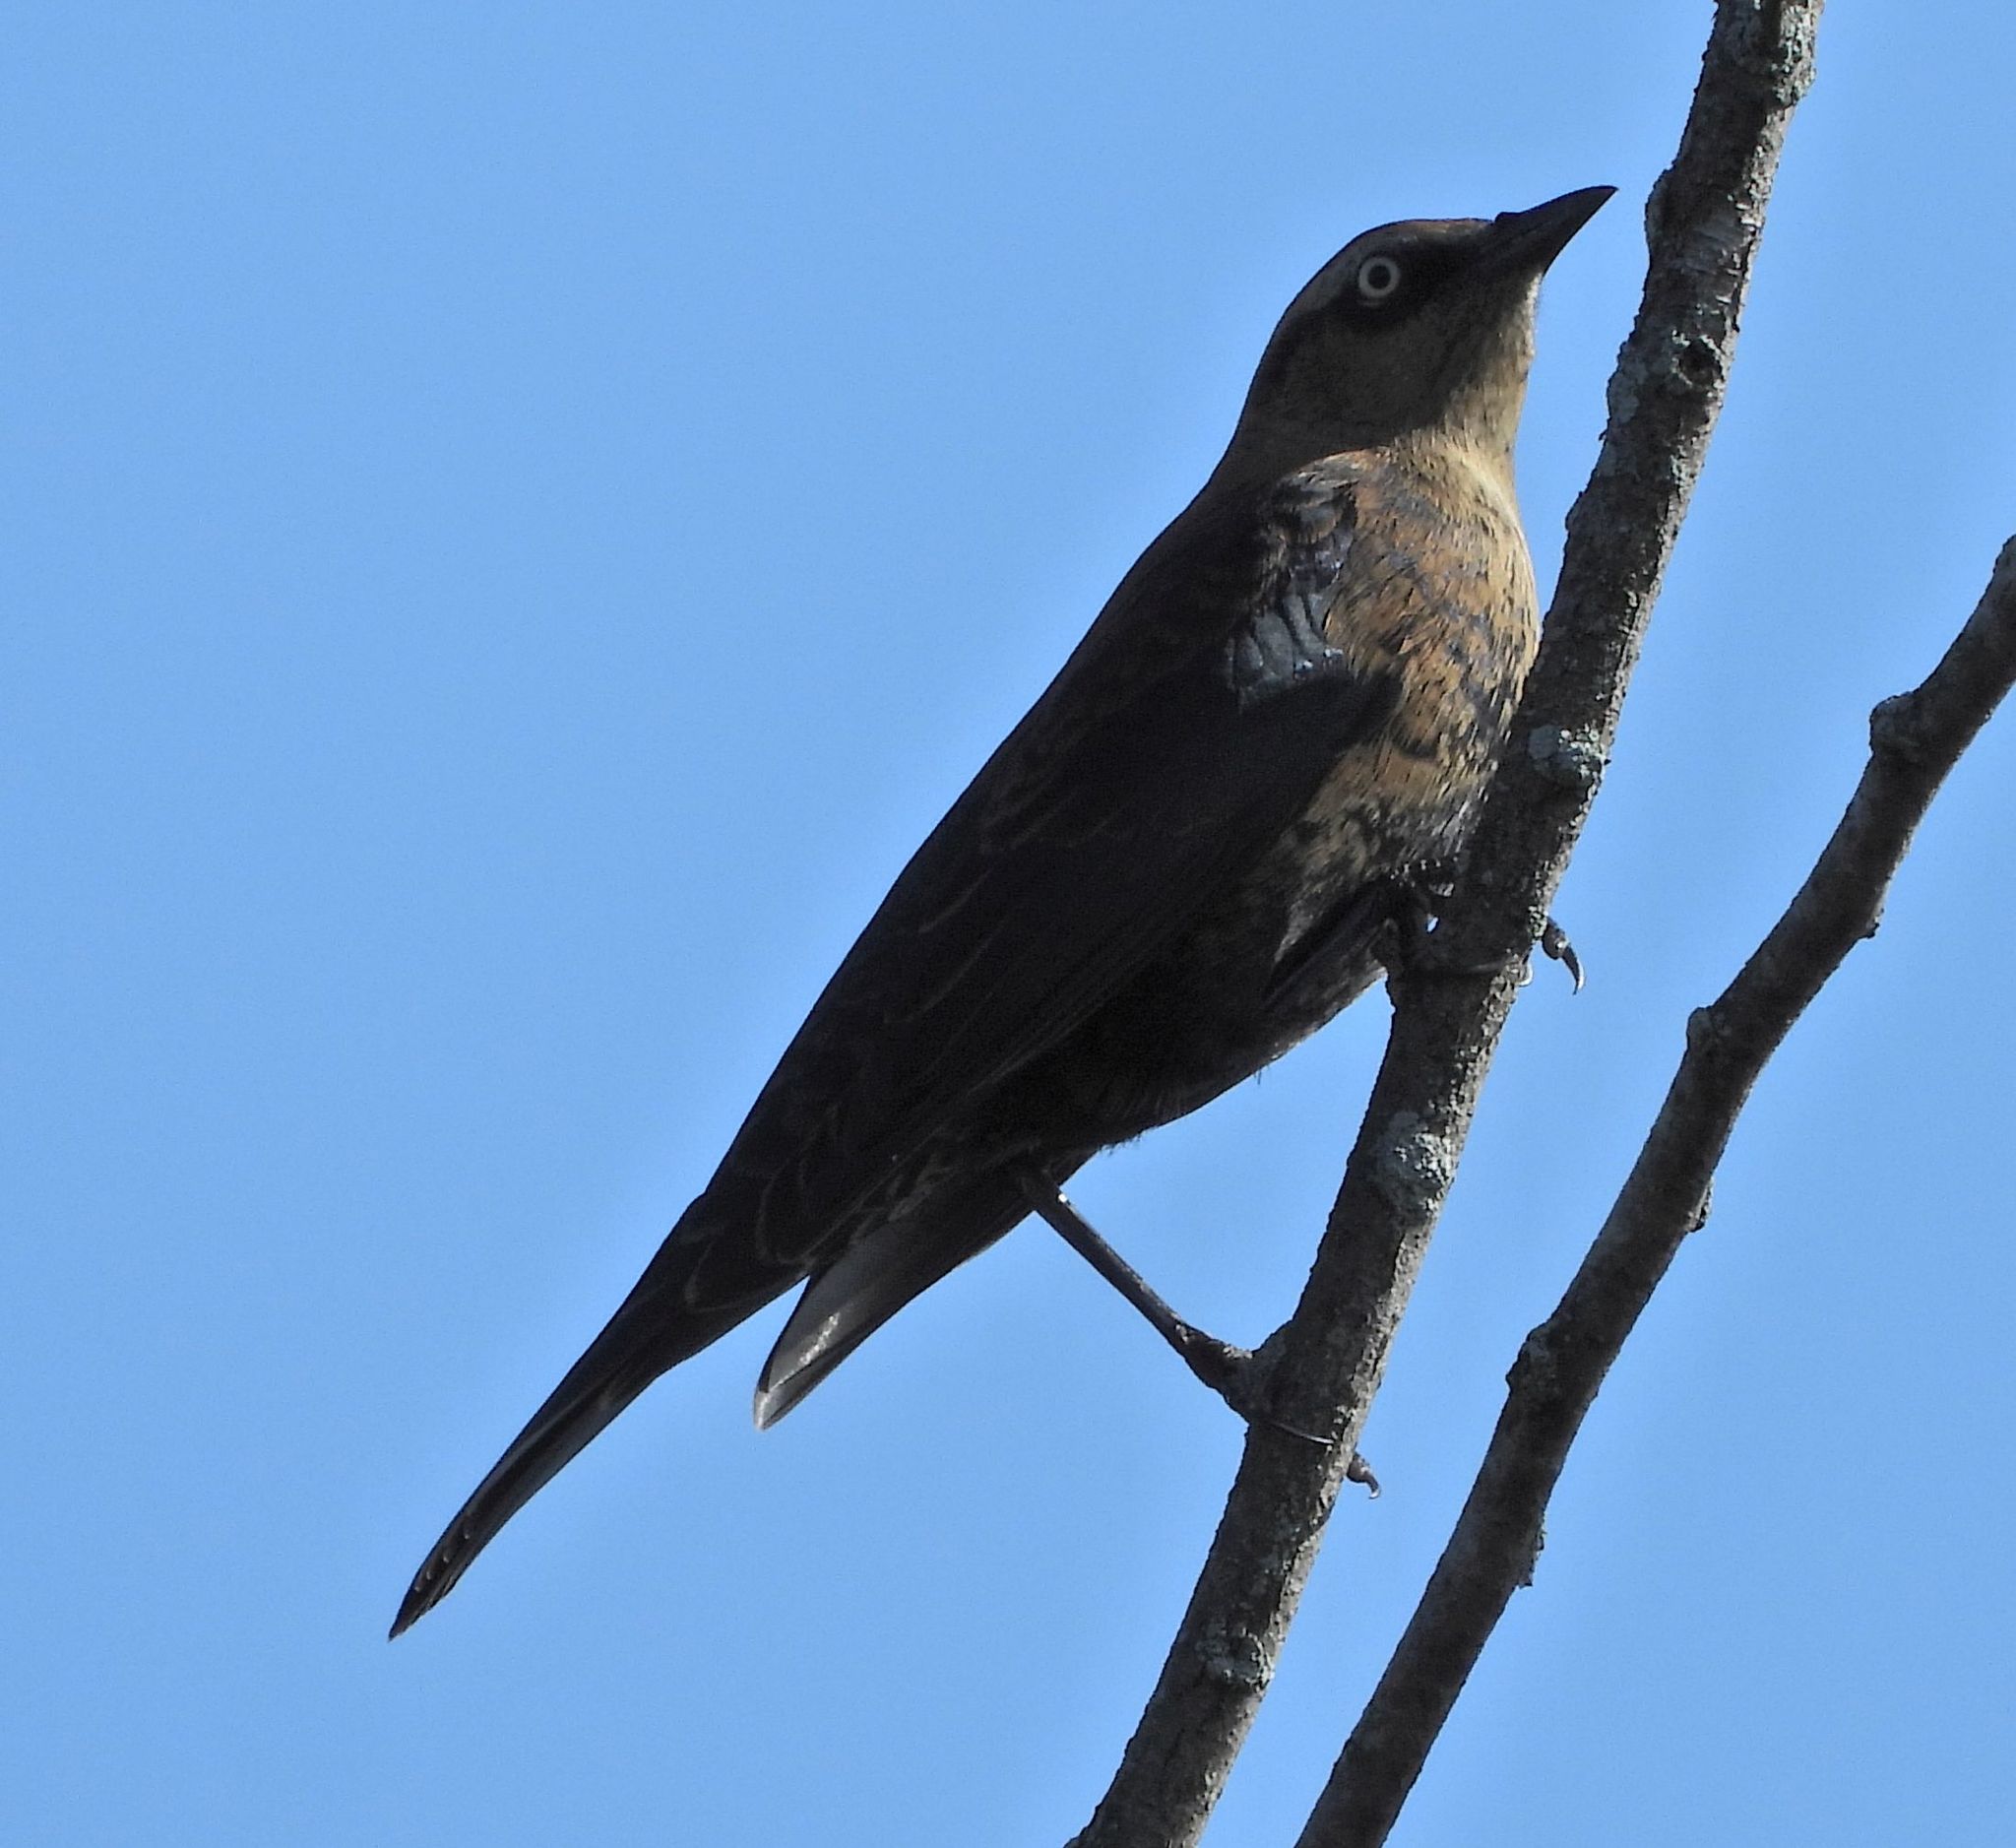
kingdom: Animalia
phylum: Chordata
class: Aves
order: Passeriformes
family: Icteridae
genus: Euphagus
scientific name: Euphagus carolinus
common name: Rusty blackbird
